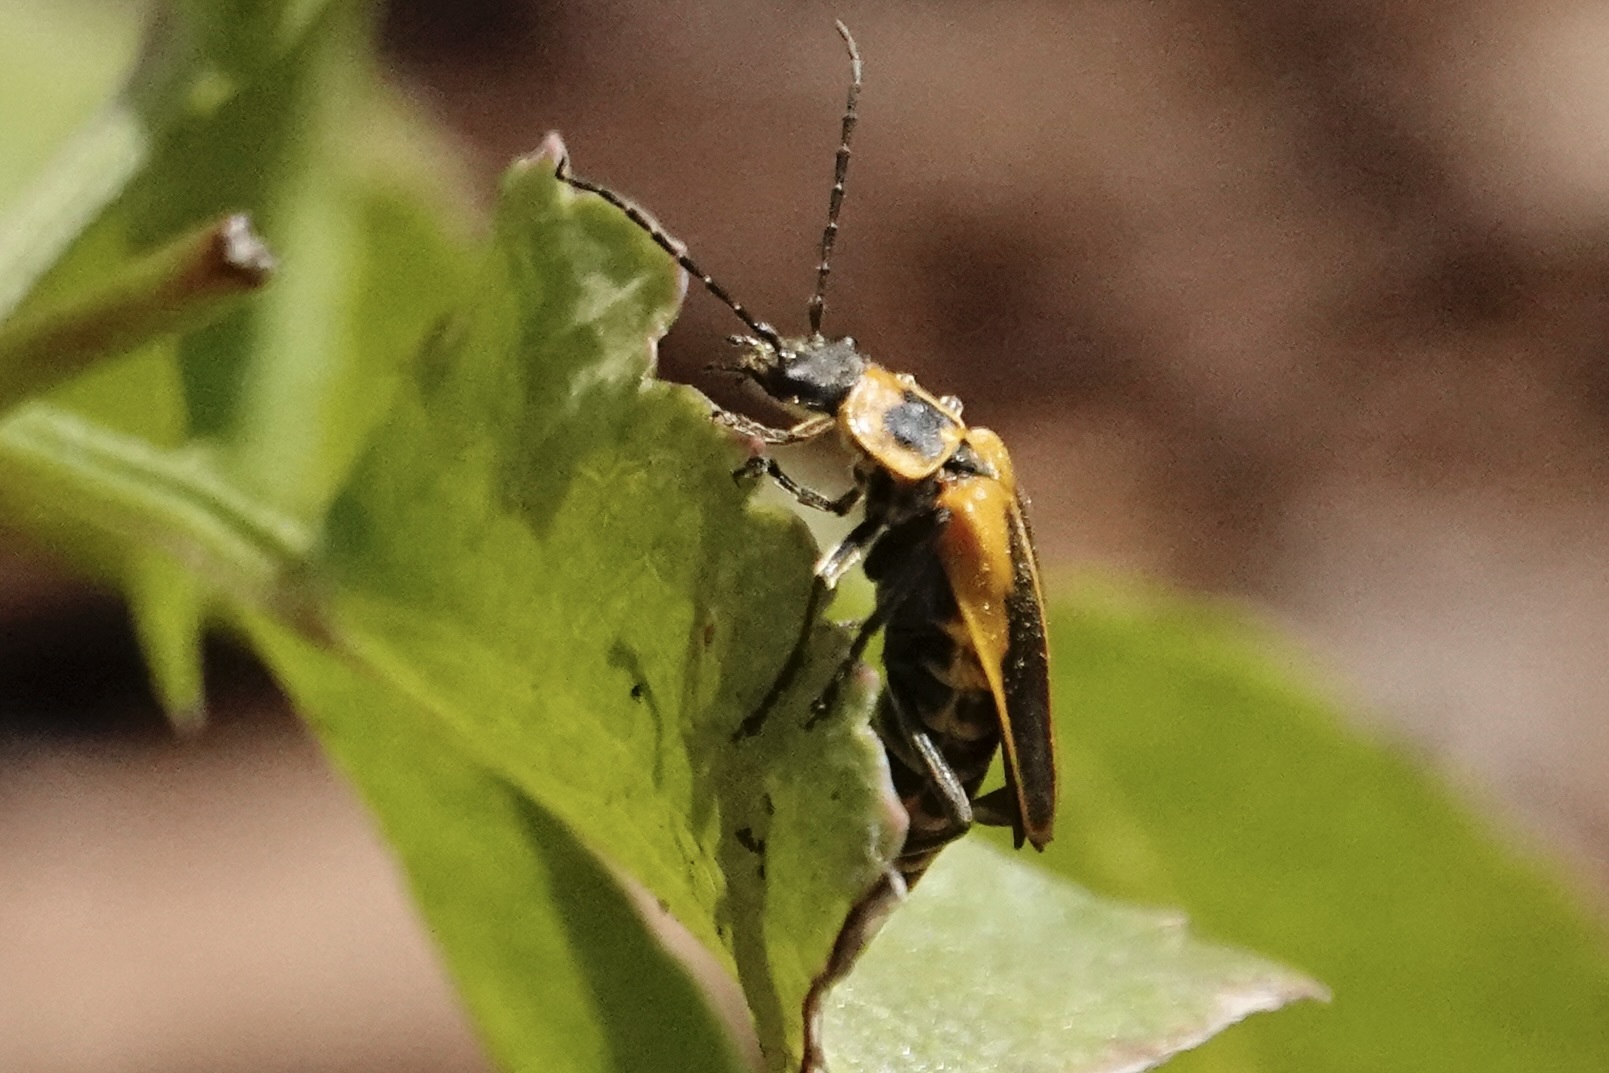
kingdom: Animalia
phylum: Arthropoda
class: Insecta
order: Coleoptera
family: Cantharidae
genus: Chauliognathus
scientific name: Chauliognathus pensylvanicus
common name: Goldenrod soldier beetle
